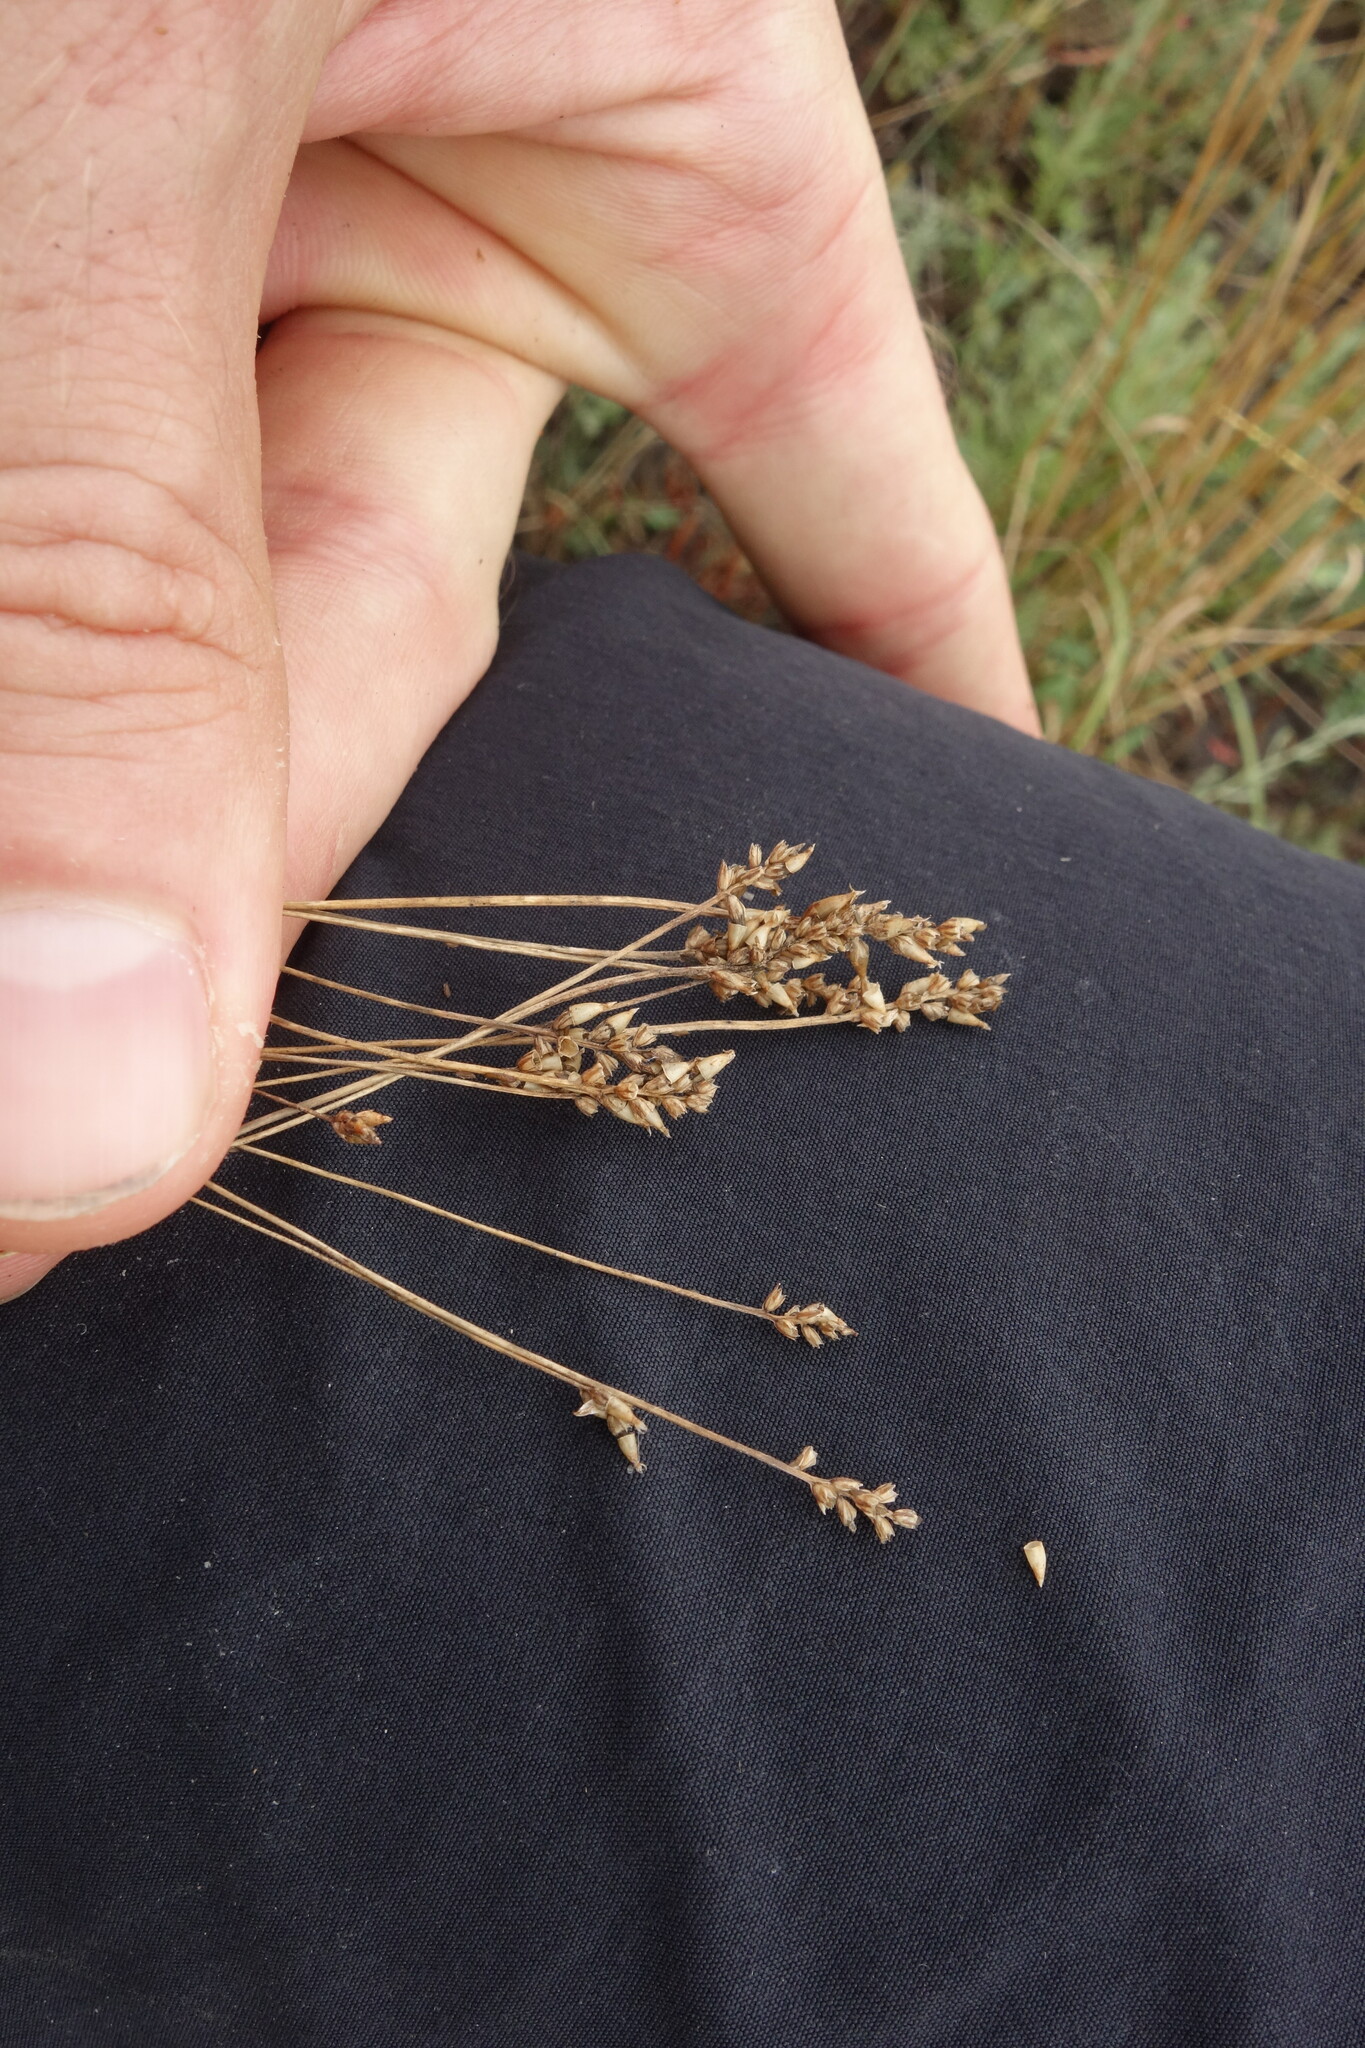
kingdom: Plantae
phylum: Tracheophyta
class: Magnoliopsida
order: Lamiales
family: Plantaginaceae
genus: Plantago
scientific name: Plantago tenuiflora
